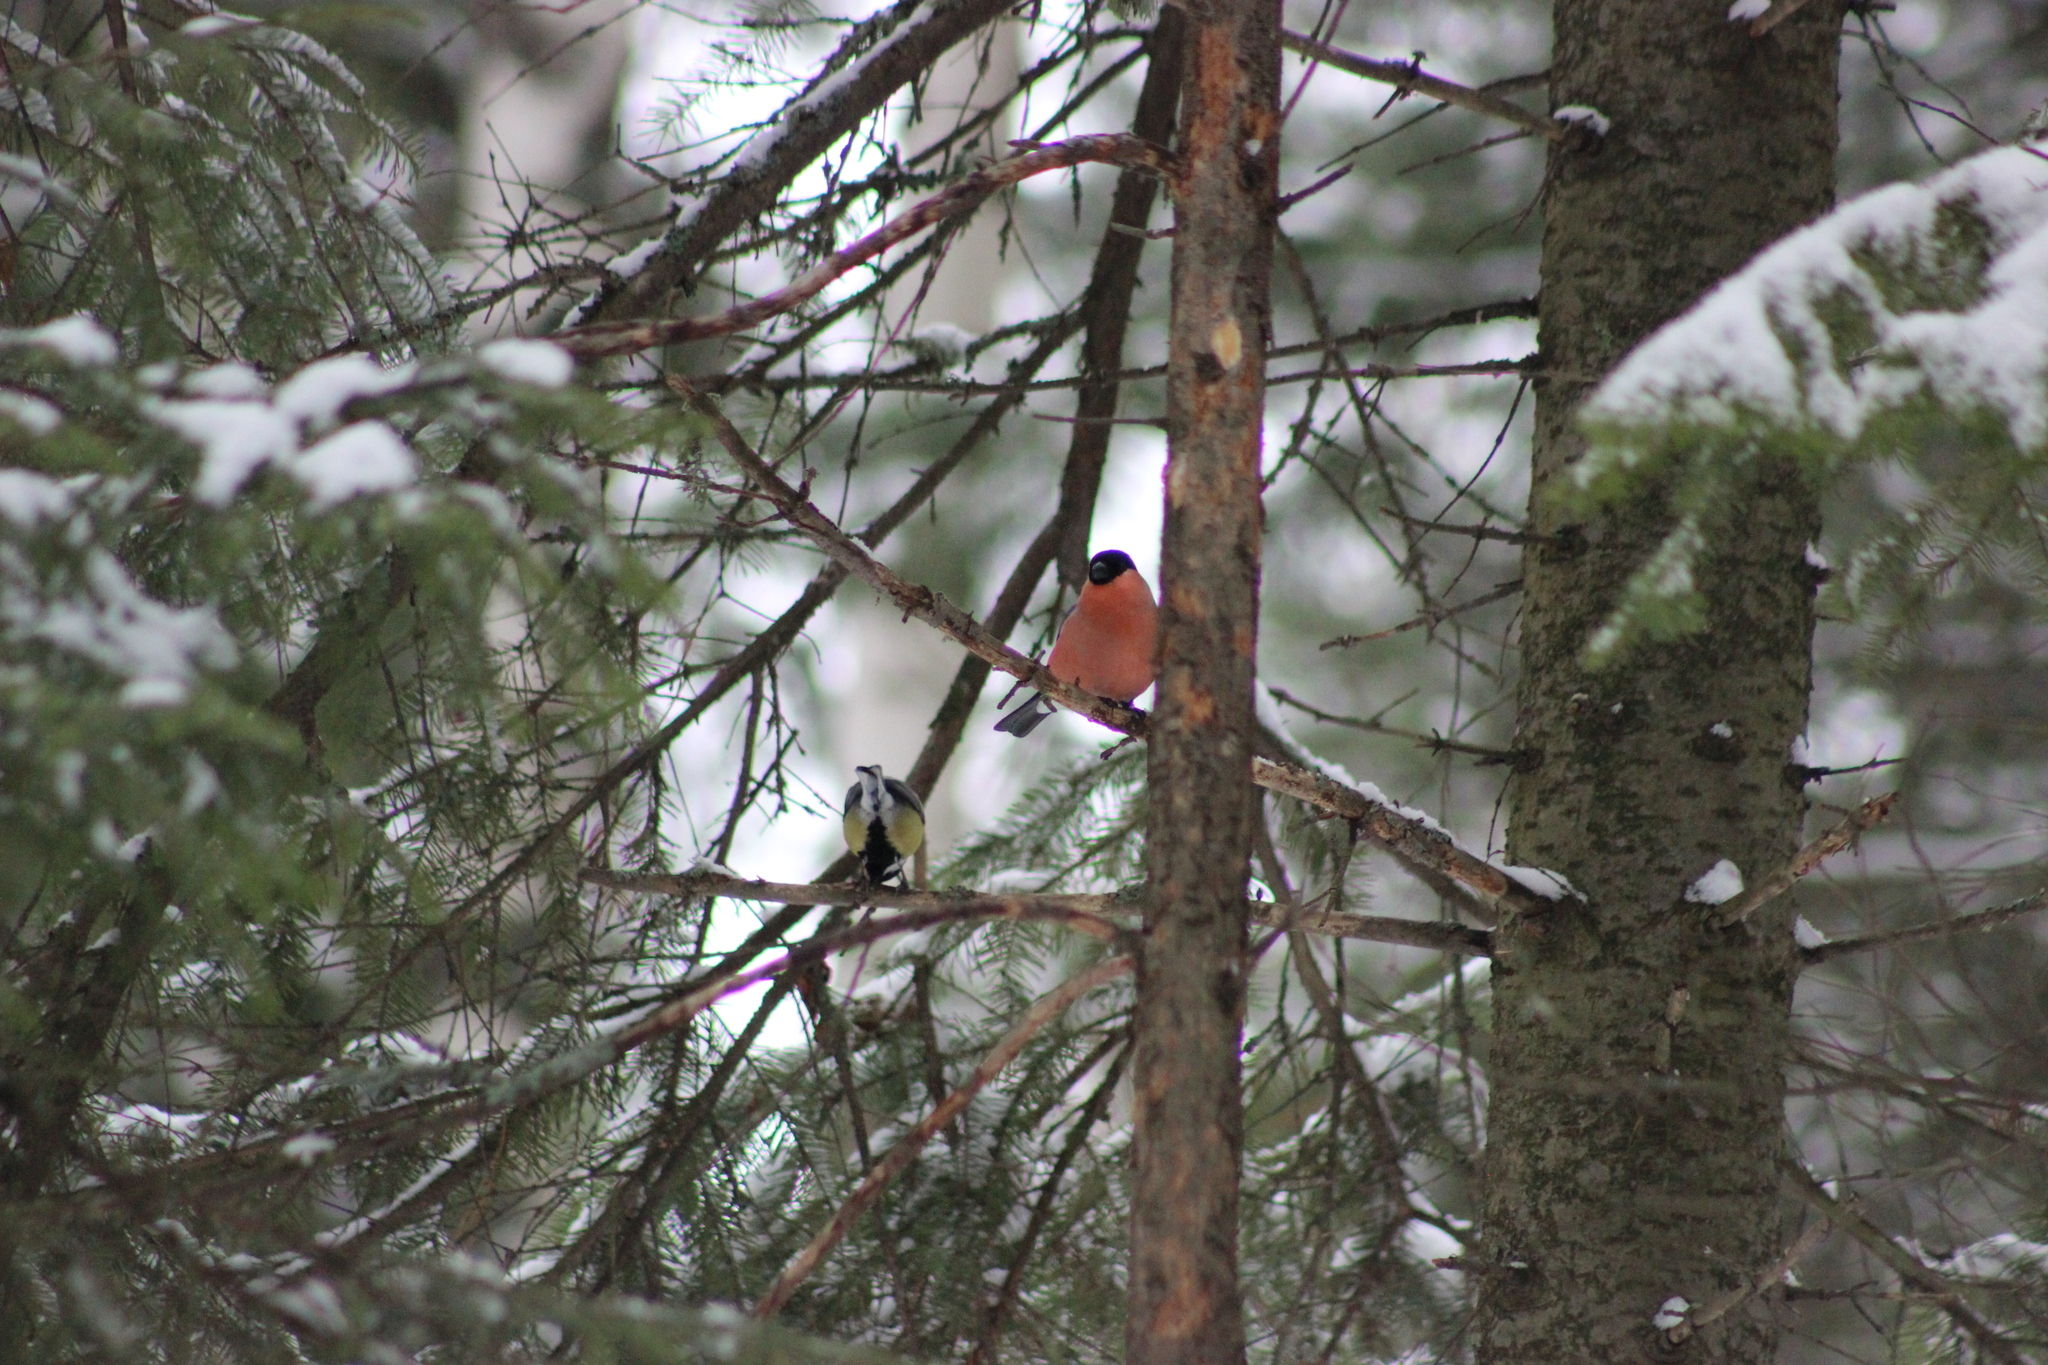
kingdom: Animalia
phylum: Chordata
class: Aves
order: Passeriformes
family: Fringillidae
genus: Pyrrhula
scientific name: Pyrrhula pyrrhula
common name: Eurasian bullfinch
